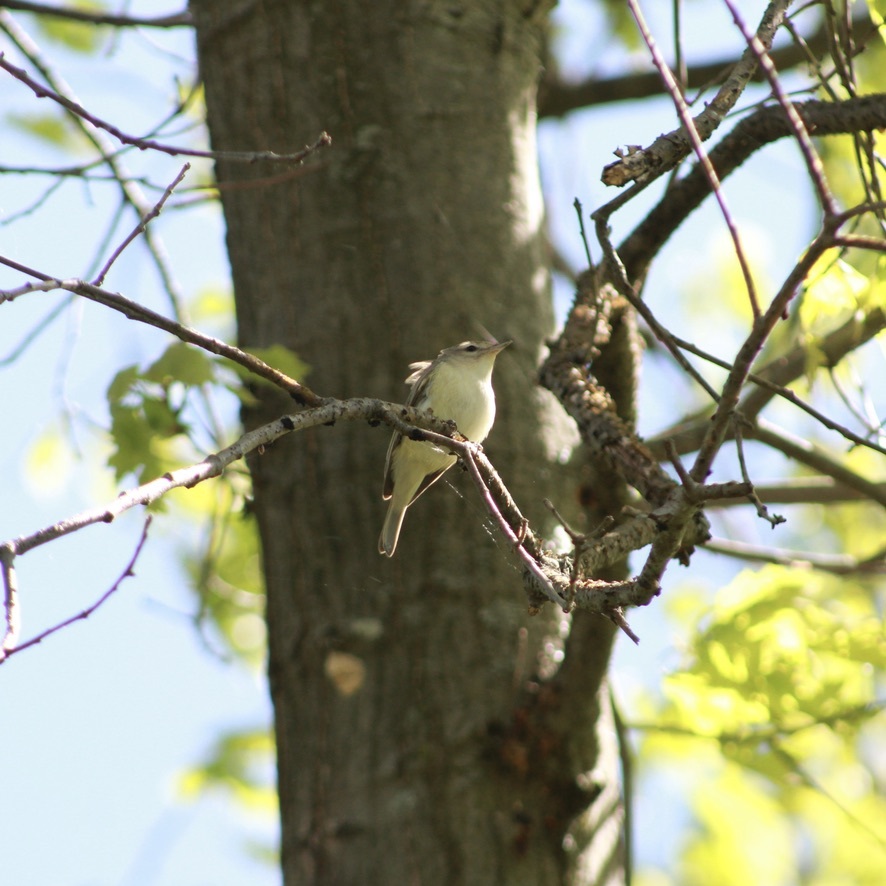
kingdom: Animalia
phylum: Chordata
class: Aves
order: Passeriformes
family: Vireonidae
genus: Vireo
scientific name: Vireo gilvus
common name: Warbling vireo
